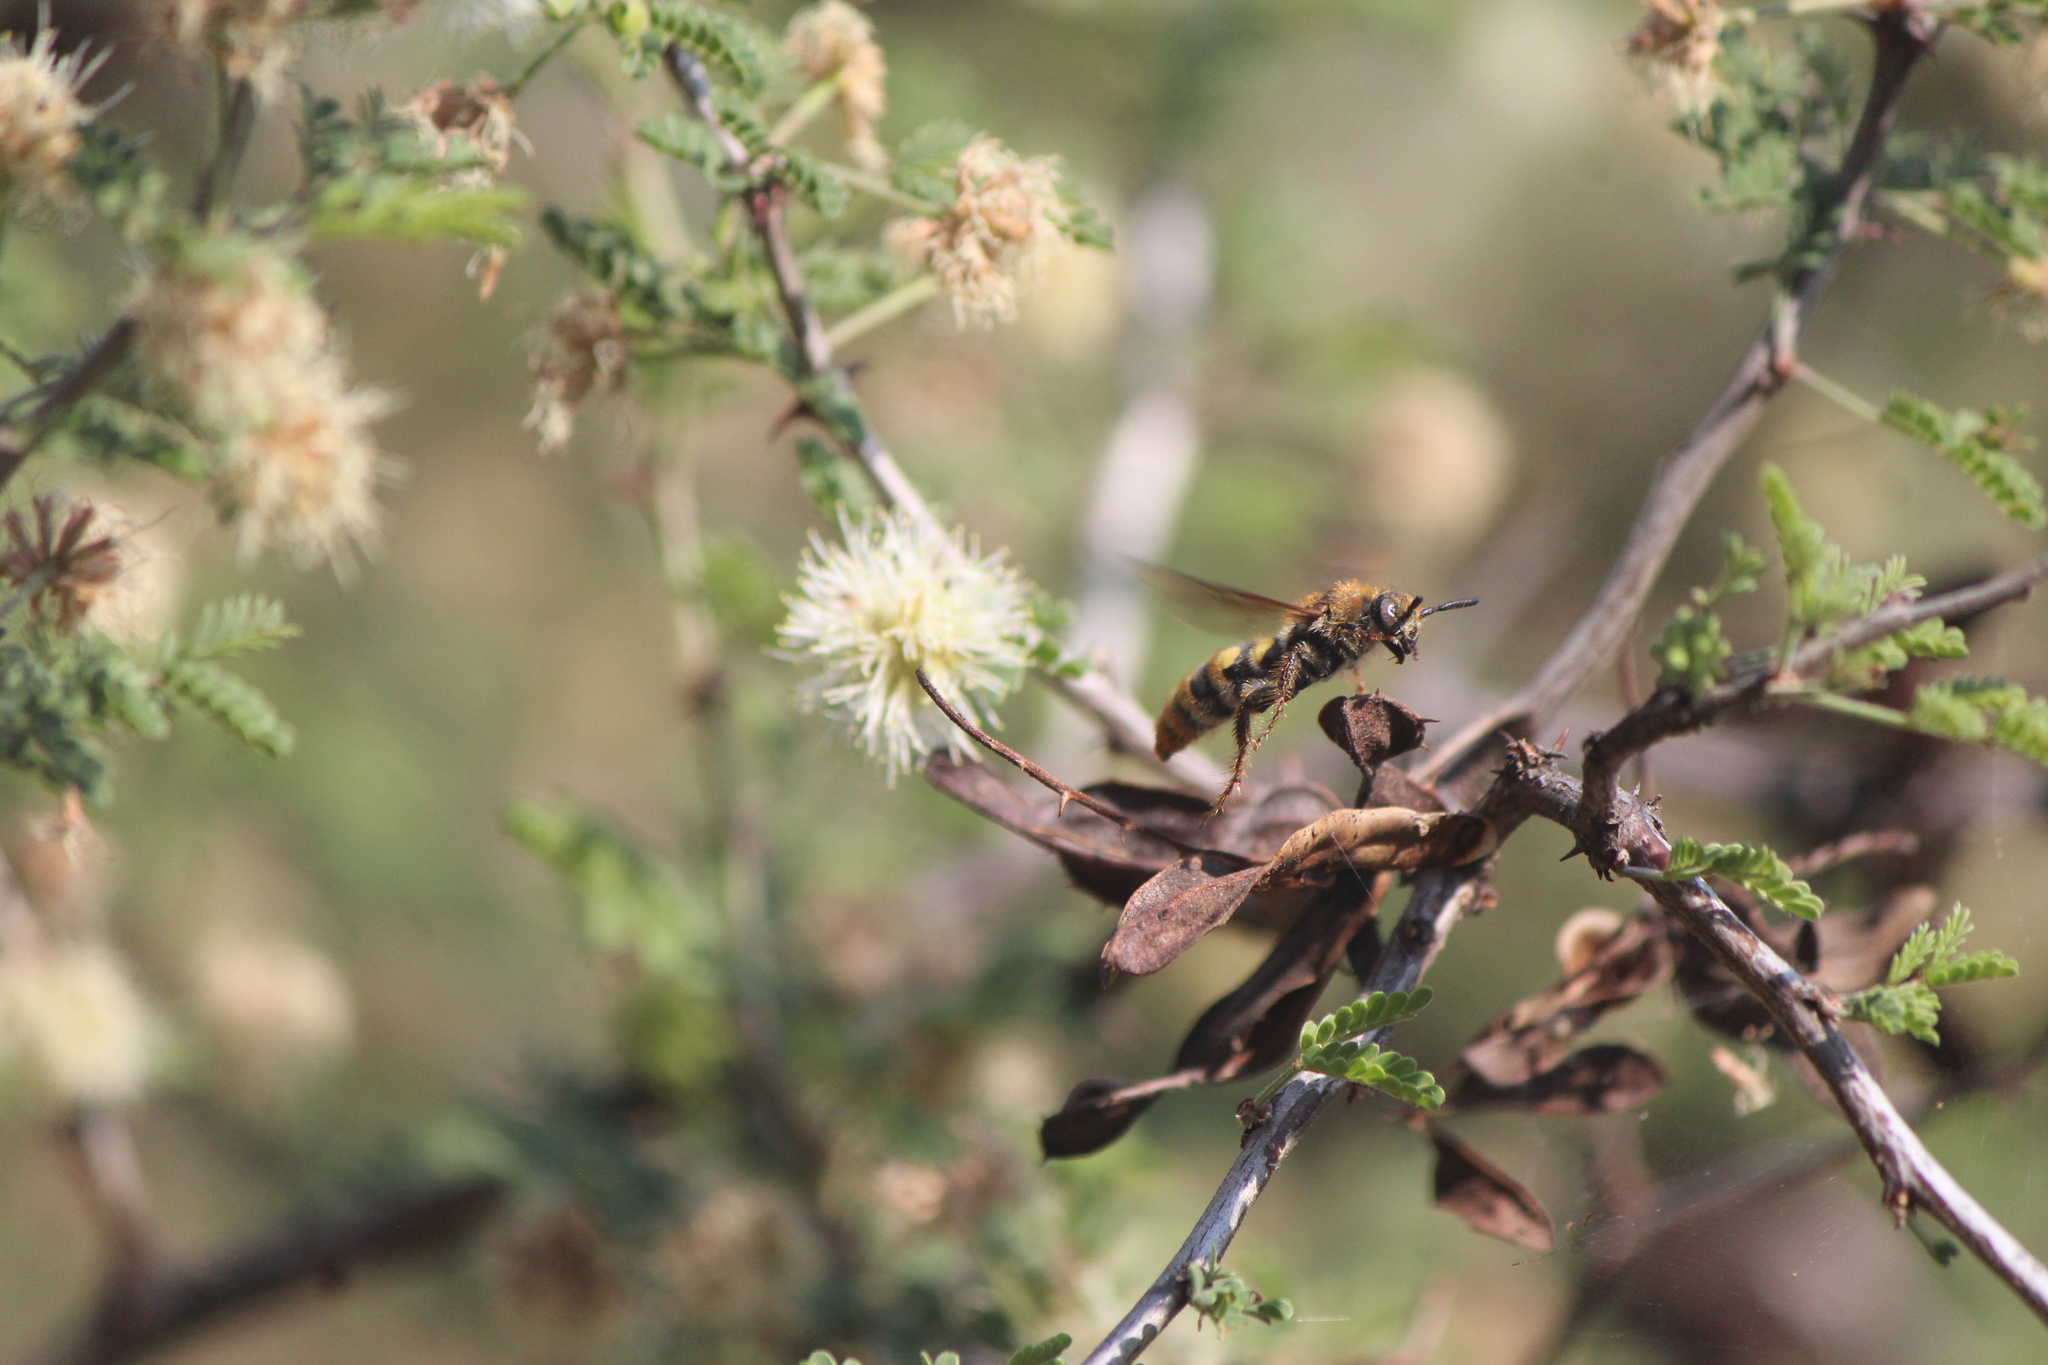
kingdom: Animalia
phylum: Arthropoda
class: Insecta
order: Hymenoptera
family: Scoliidae
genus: Xanthocampsomeris
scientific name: Xanthocampsomeris completa
